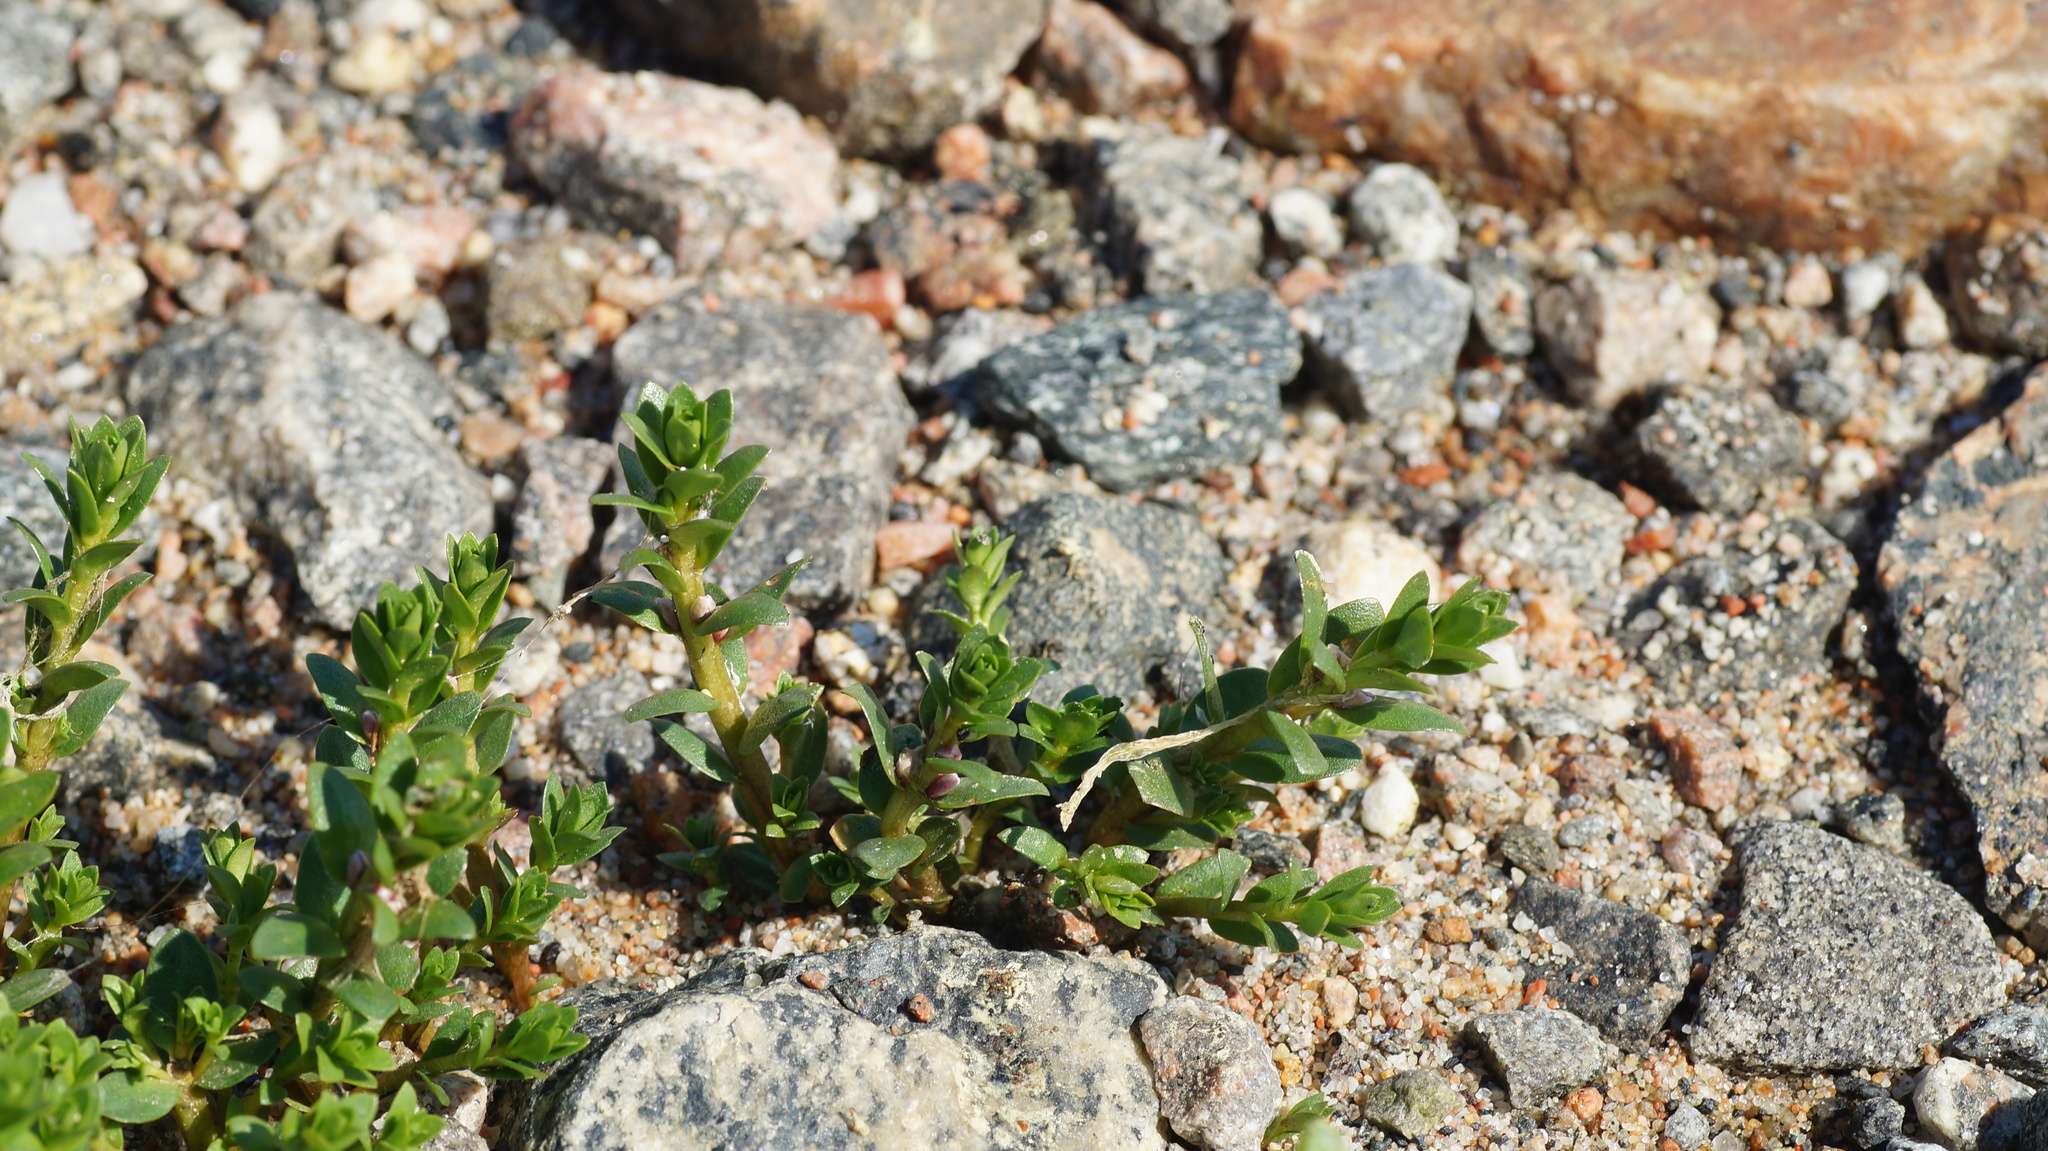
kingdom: Plantae
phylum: Tracheophyta
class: Magnoliopsida
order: Ericales
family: Primulaceae
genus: Lysimachia
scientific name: Lysimachia maritima
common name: Sea milkwort
